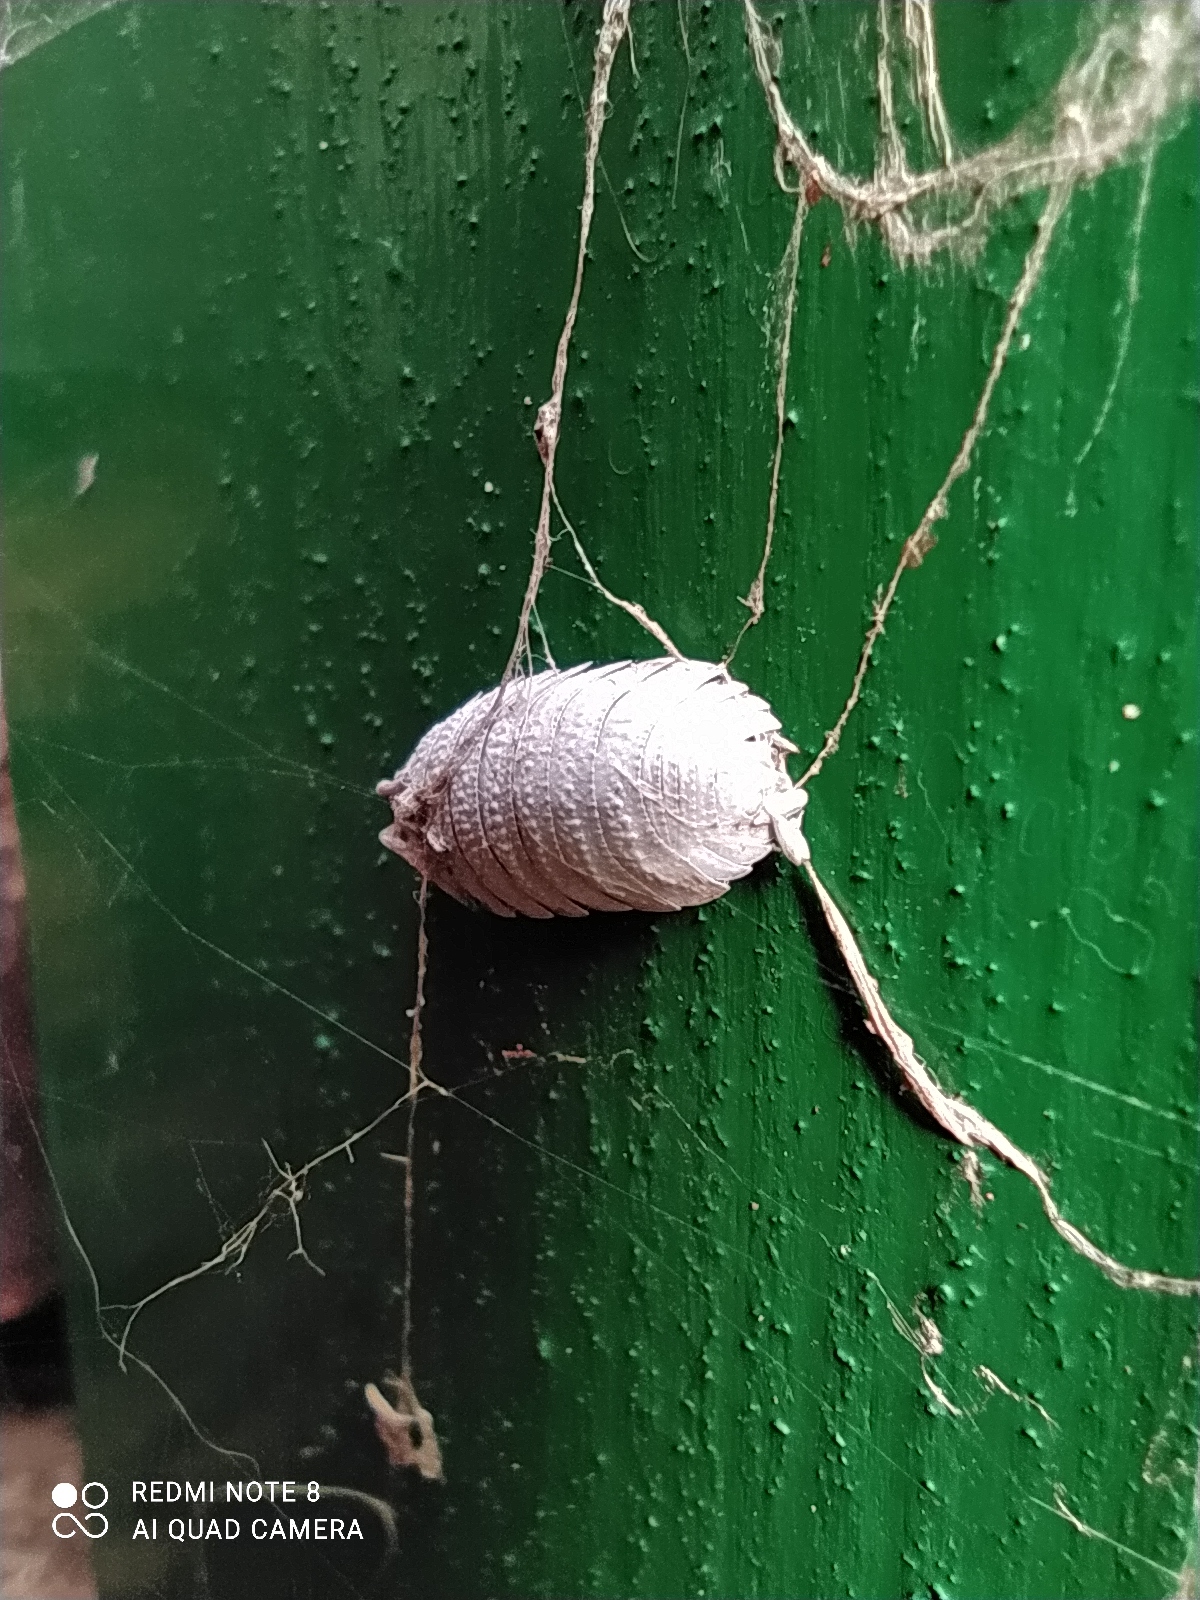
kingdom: Animalia
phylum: Arthropoda
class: Malacostraca
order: Isopoda
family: Porcellionidae
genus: Porcellio
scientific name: Porcellio scaber
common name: Common rough woodlouse
